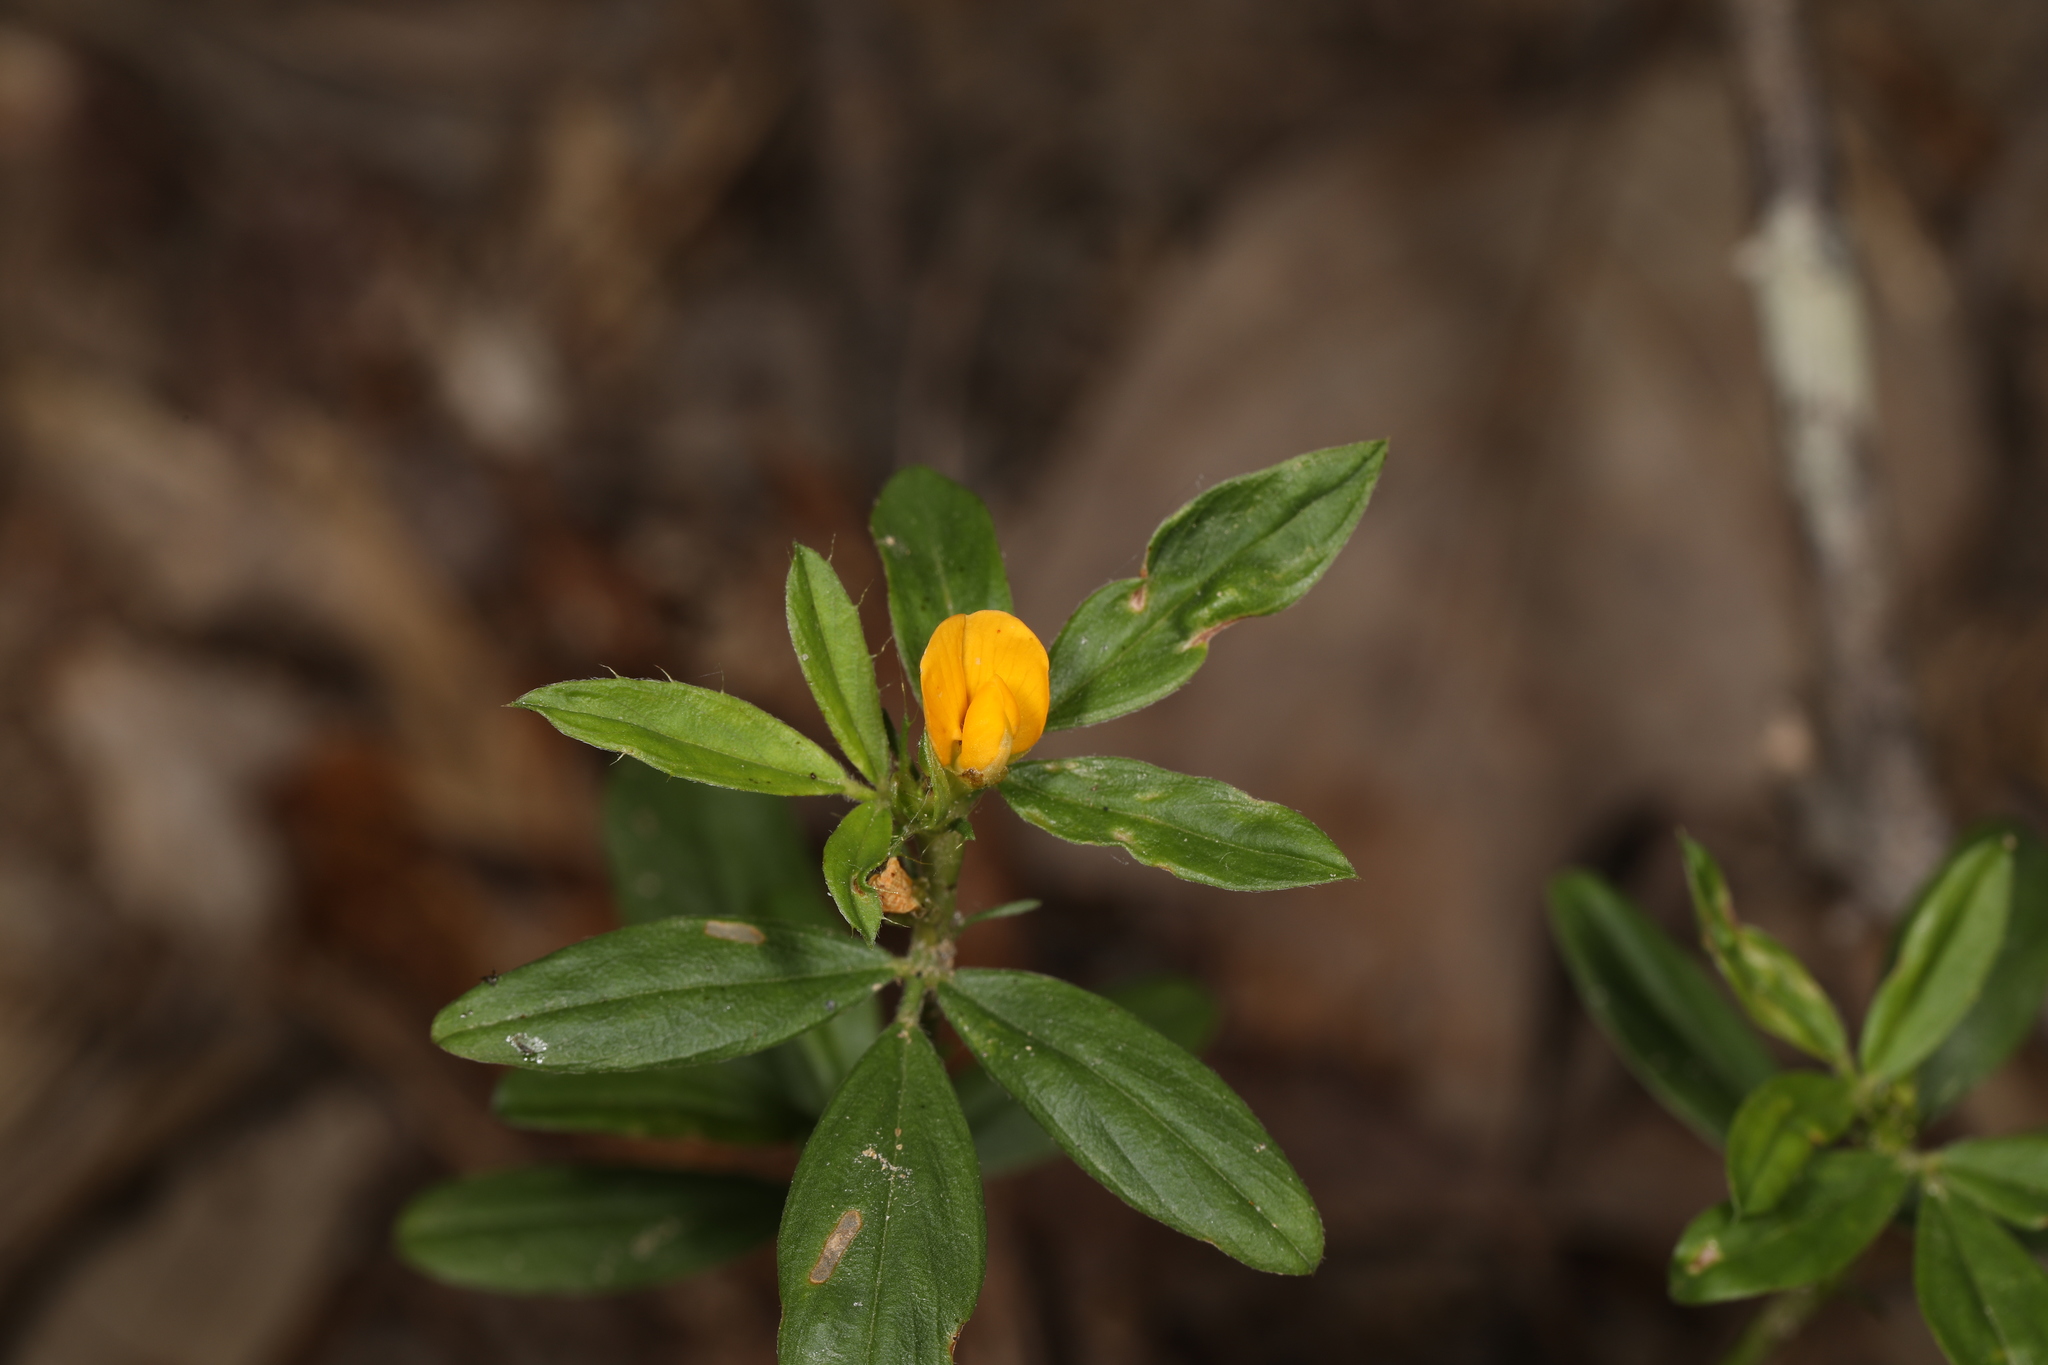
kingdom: Plantae
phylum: Tracheophyta
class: Magnoliopsida
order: Fabales
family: Fabaceae
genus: Stylosanthes
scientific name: Stylosanthes biflora
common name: Two-flower pencil-flower
